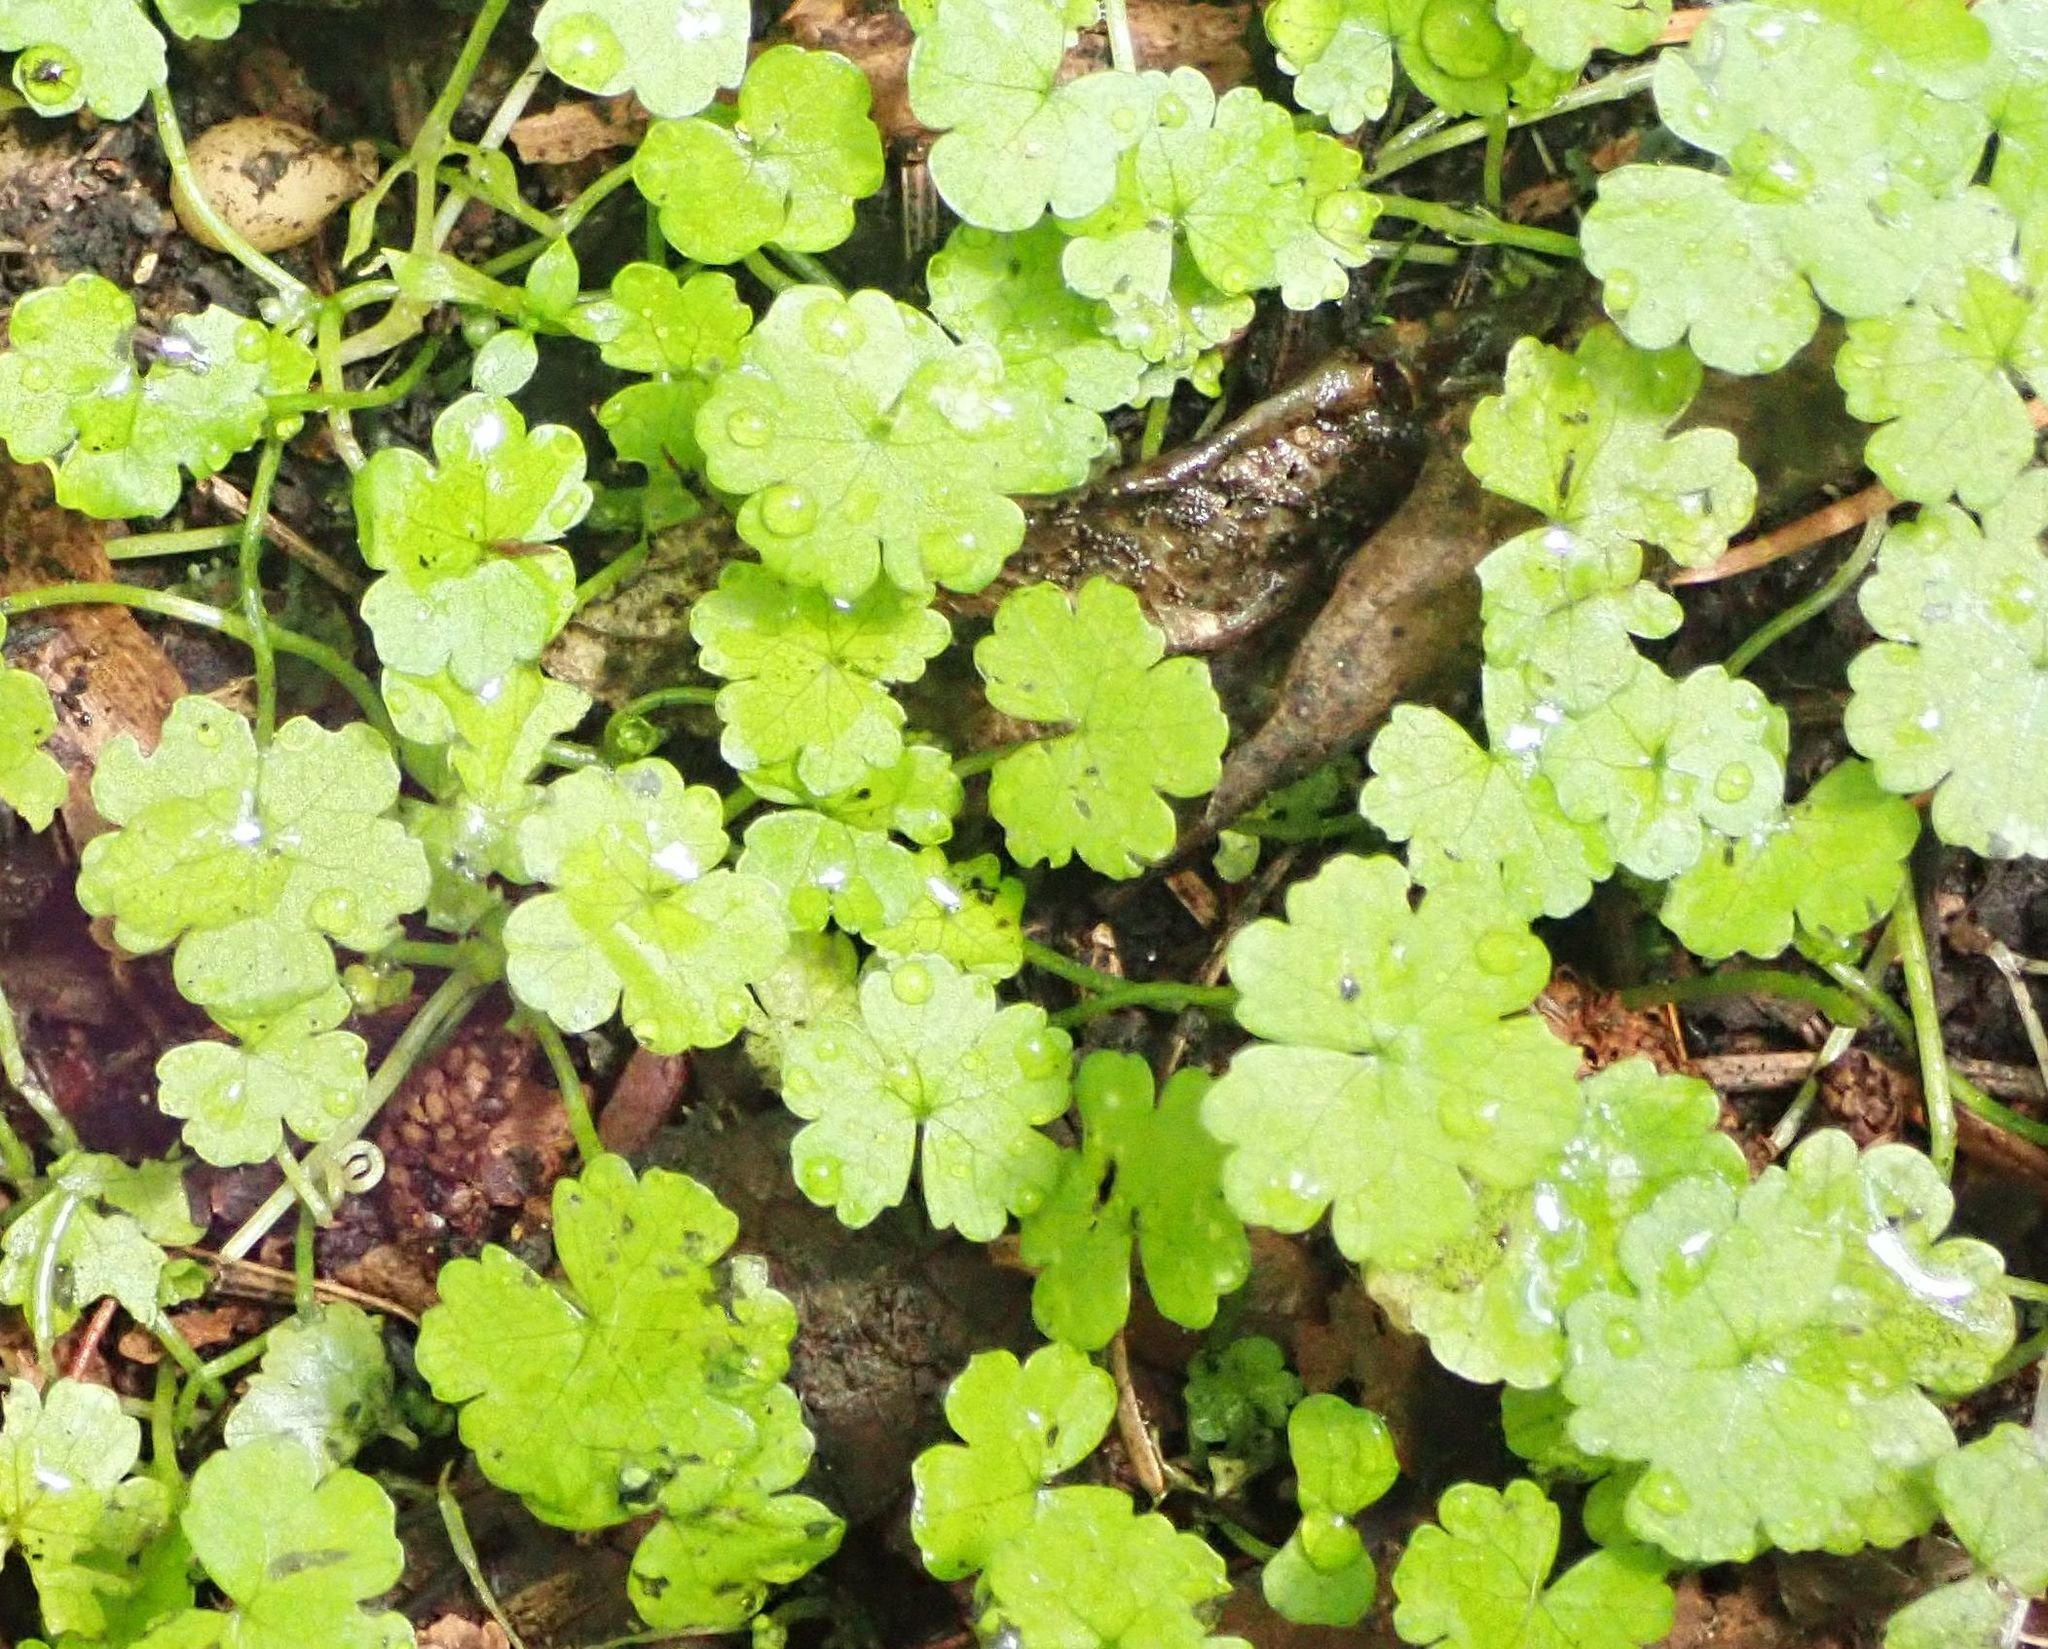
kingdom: Plantae
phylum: Tracheophyta
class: Magnoliopsida
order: Apiales
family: Araliaceae
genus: Hydrocotyle
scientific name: Hydrocotyle heteromeria
